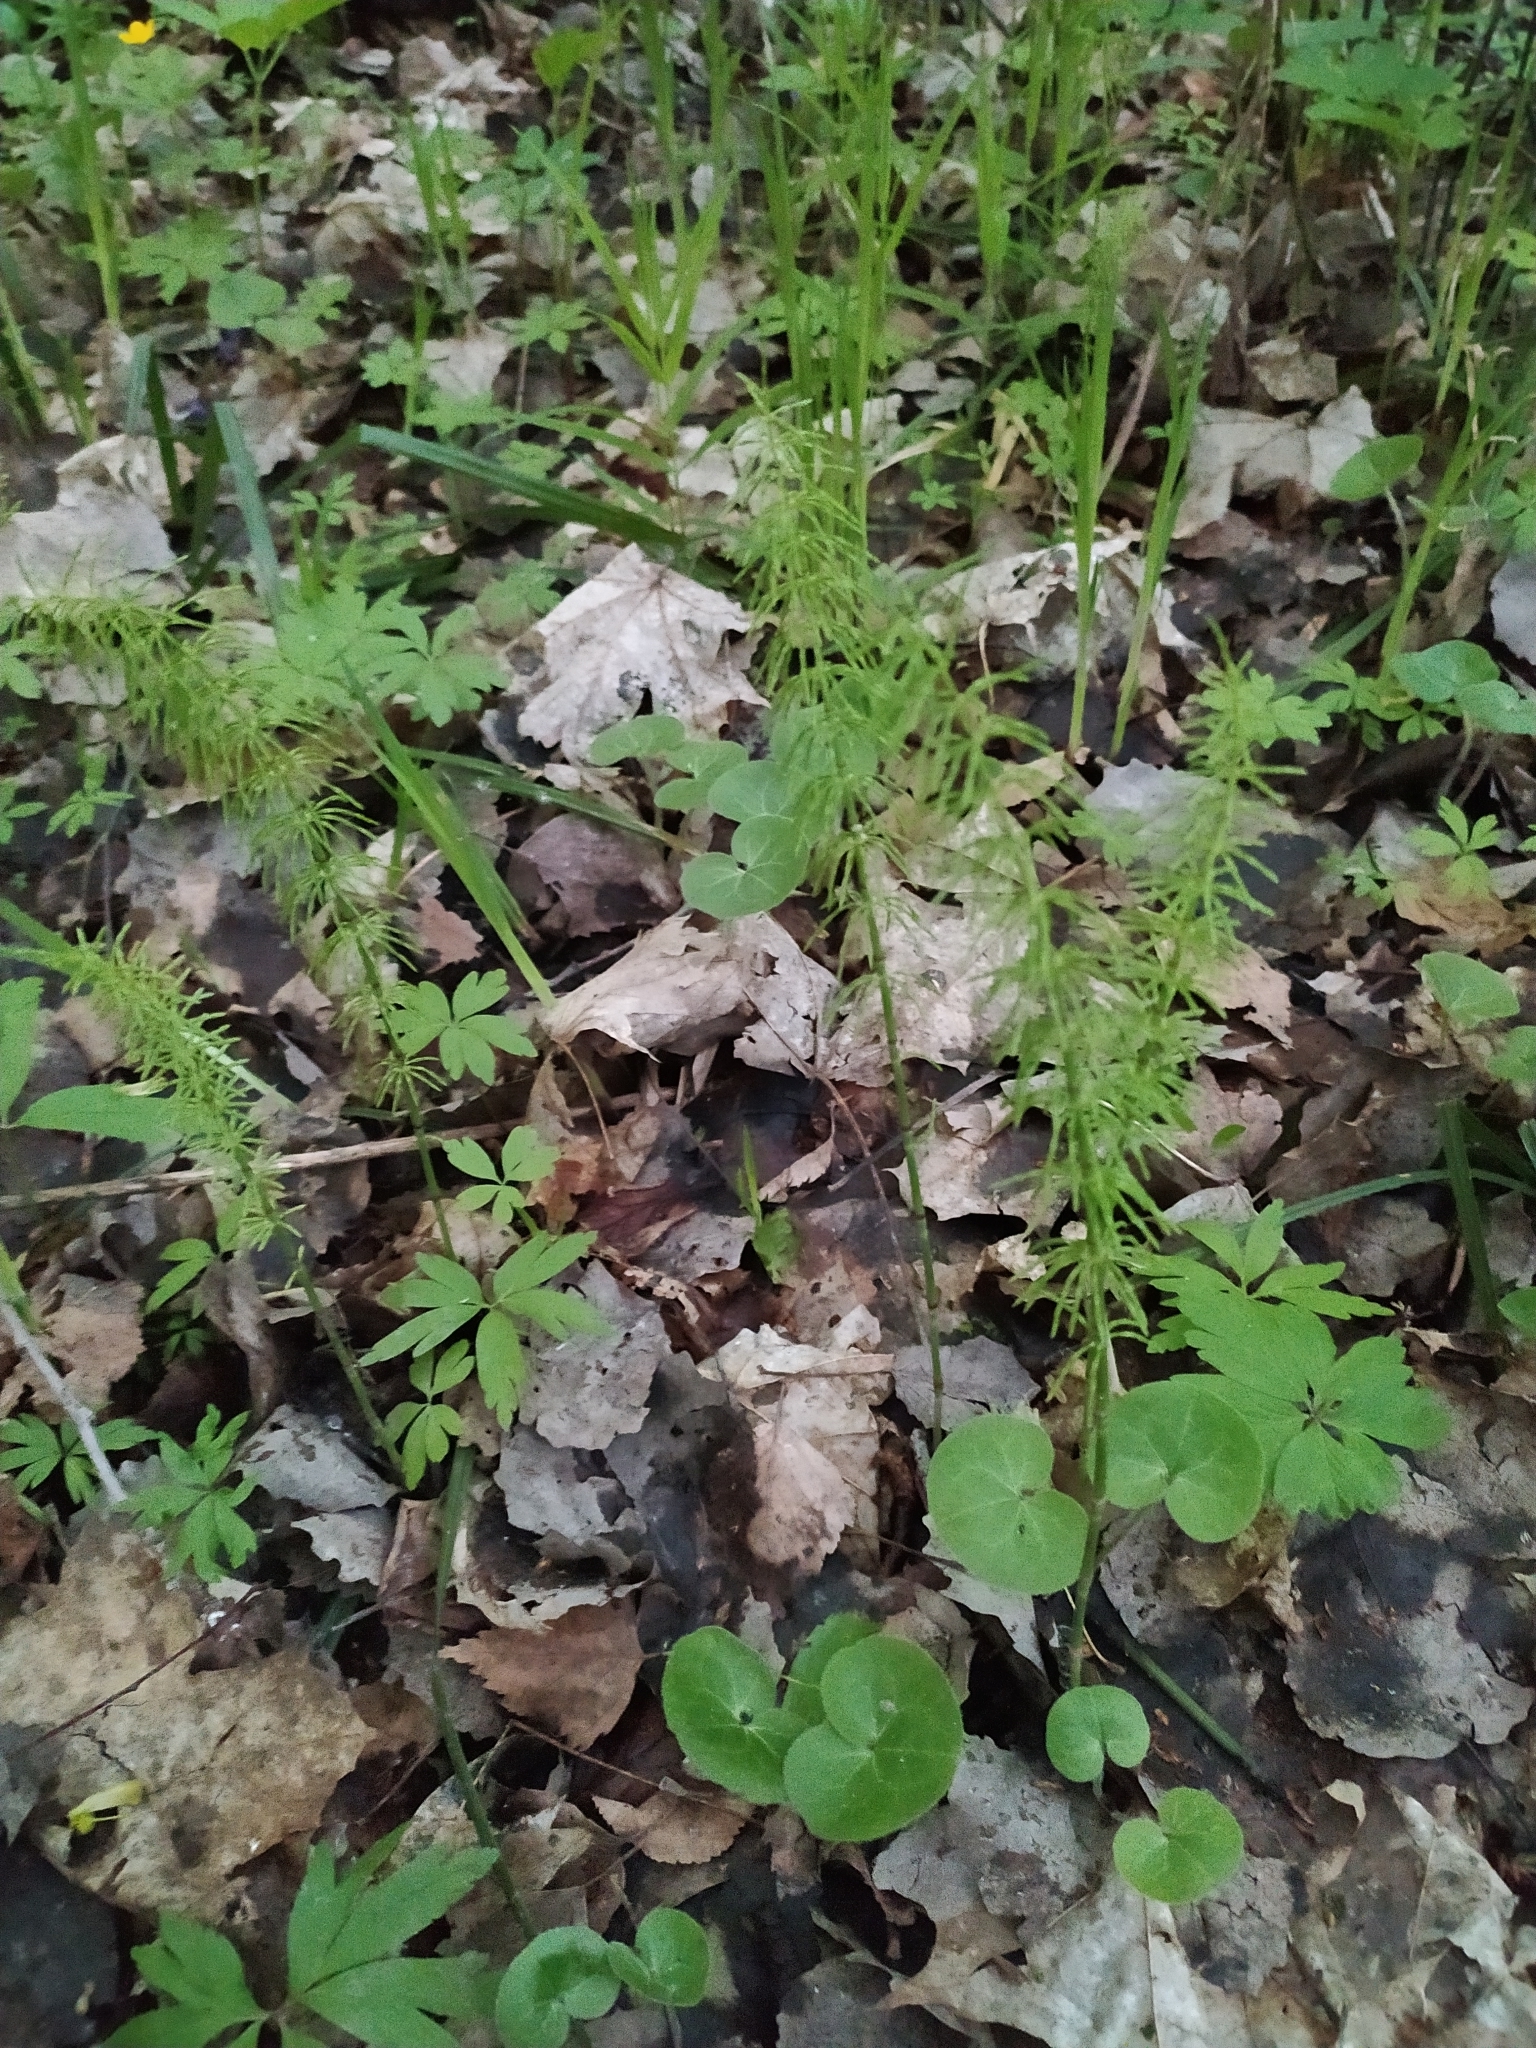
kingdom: Plantae
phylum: Tracheophyta
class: Polypodiopsida
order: Equisetales
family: Equisetaceae
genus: Equisetum
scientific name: Equisetum pratense
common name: Meadow horsetail
